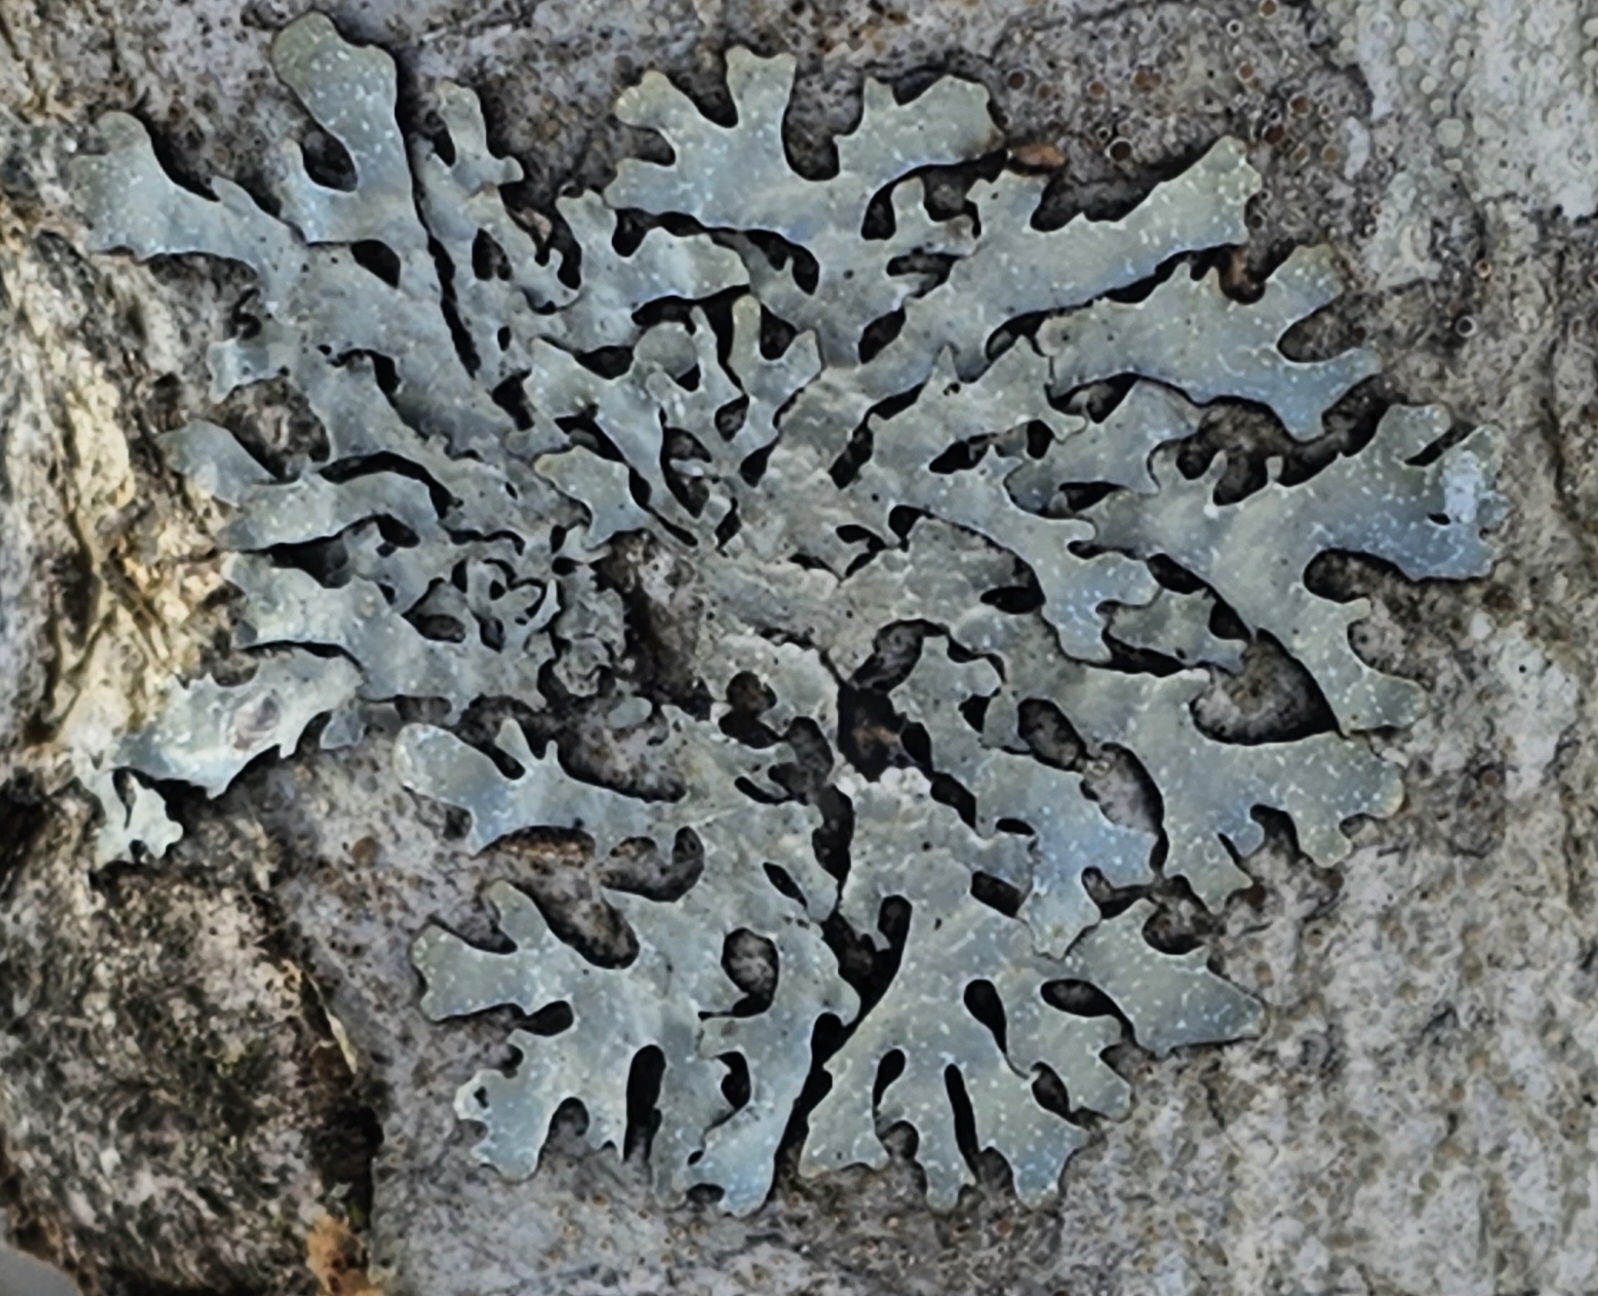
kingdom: Fungi
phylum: Ascomycota
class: Lecanoromycetes
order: Lecanorales
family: Parmeliaceae
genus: Parmelia
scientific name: Parmelia sulcata
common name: Netted shield lichen
